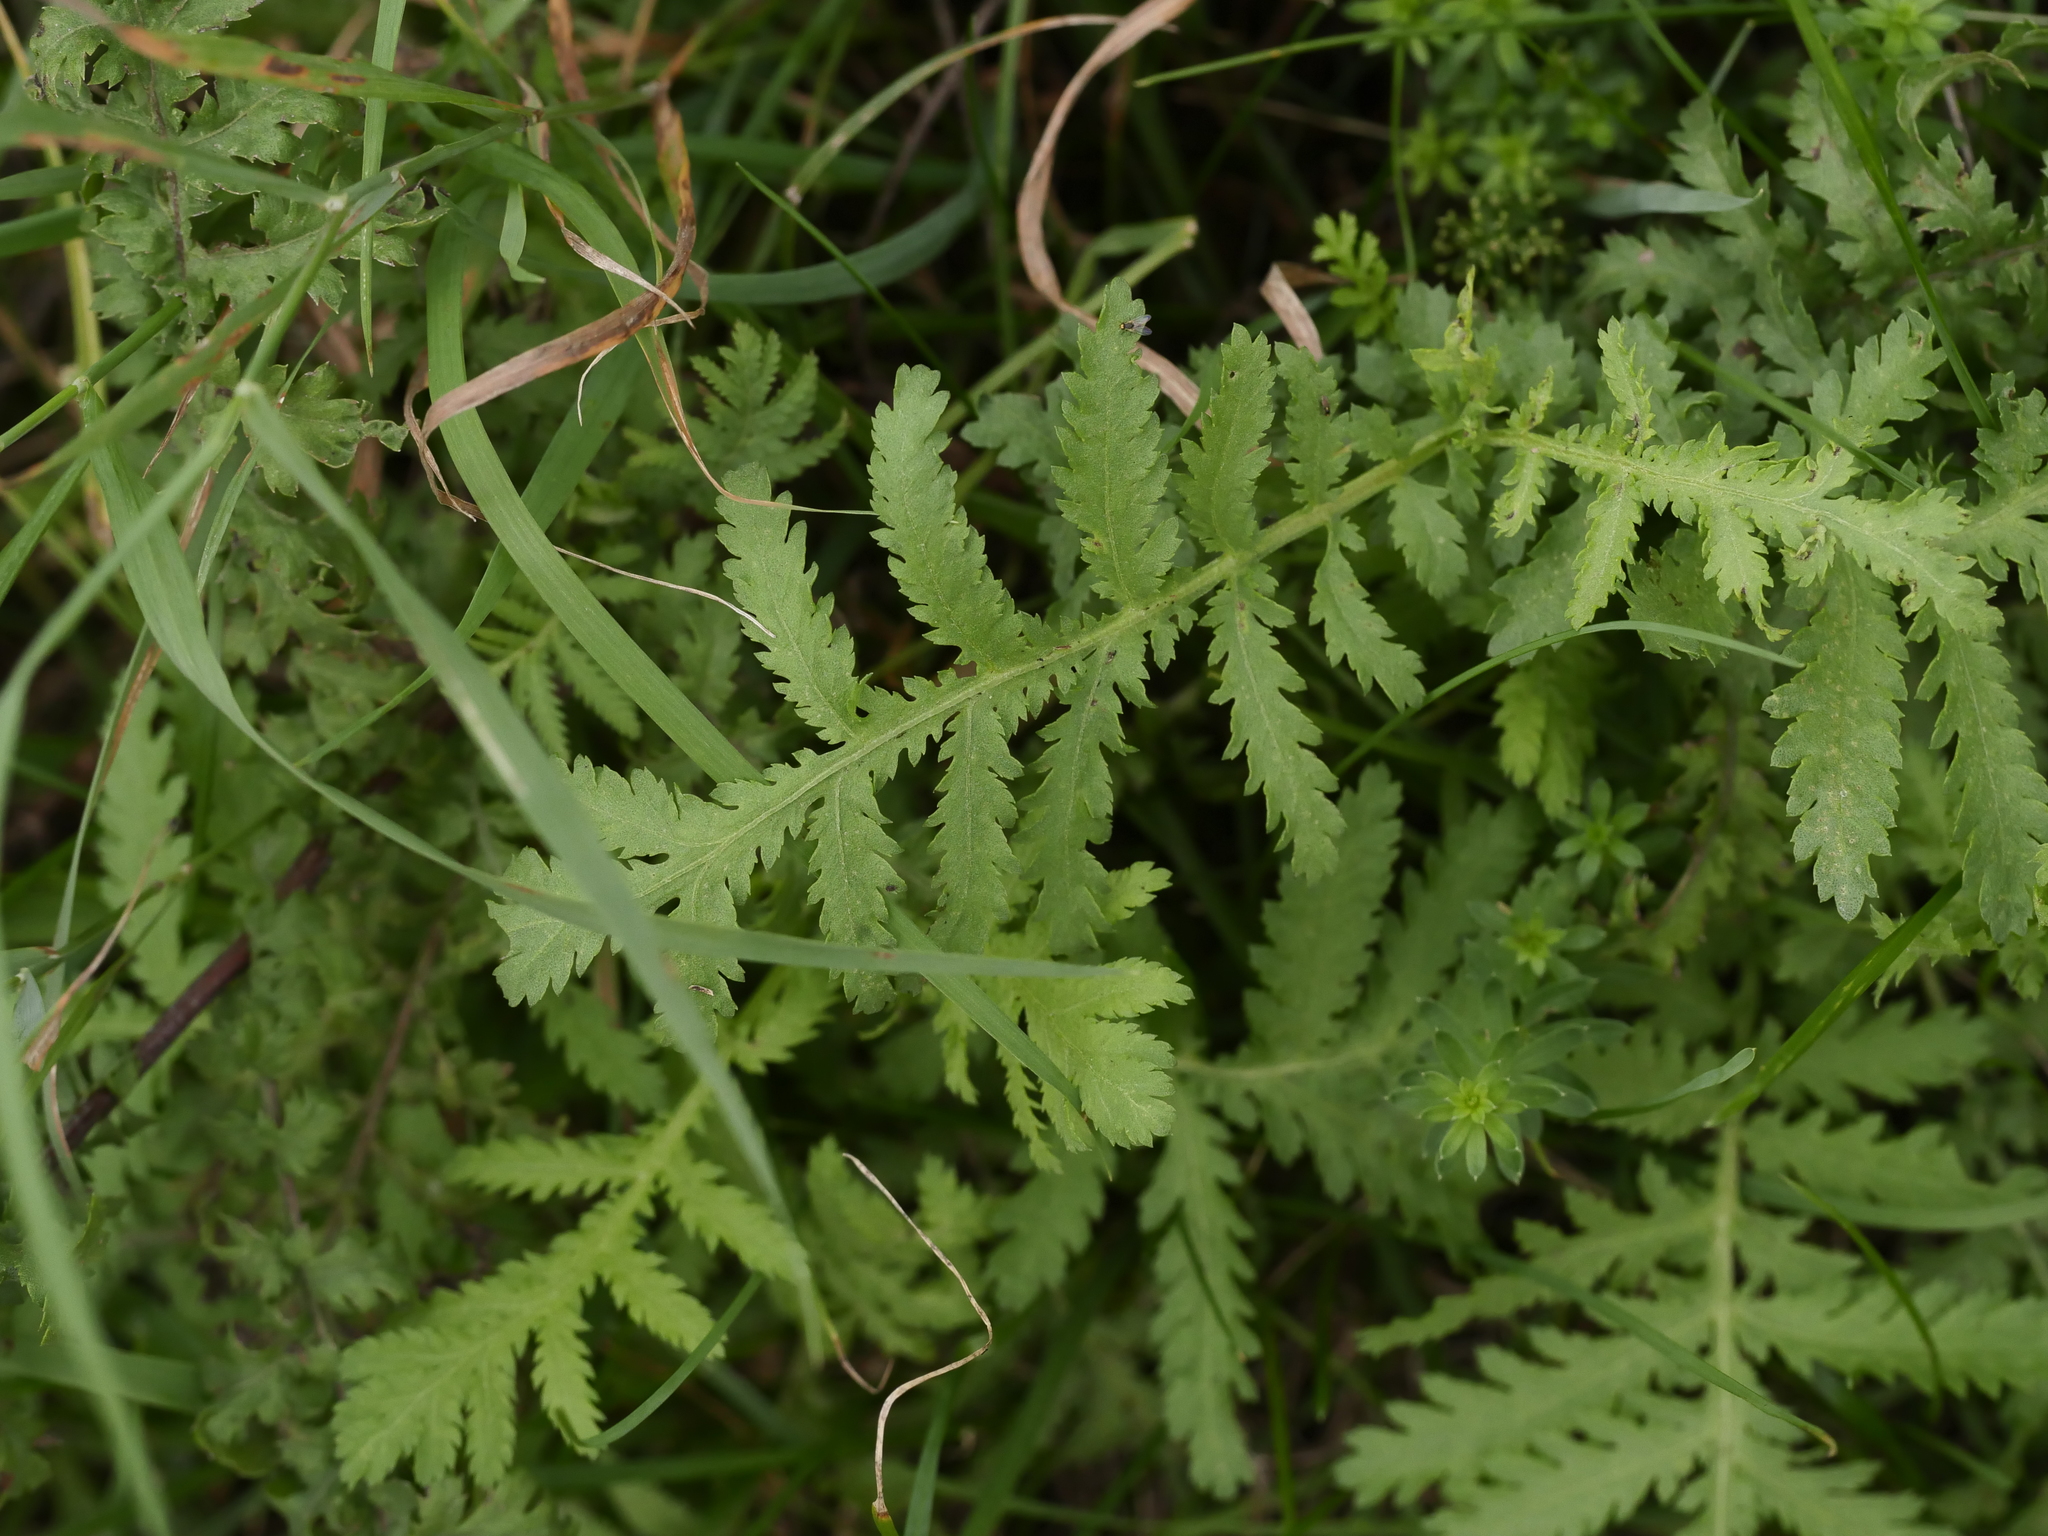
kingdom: Plantae
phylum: Tracheophyta
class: Magnoliopsida
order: Asterales
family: Asteraceae
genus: Tanacetum
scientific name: Tanacetum vulgare
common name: Common tansy
